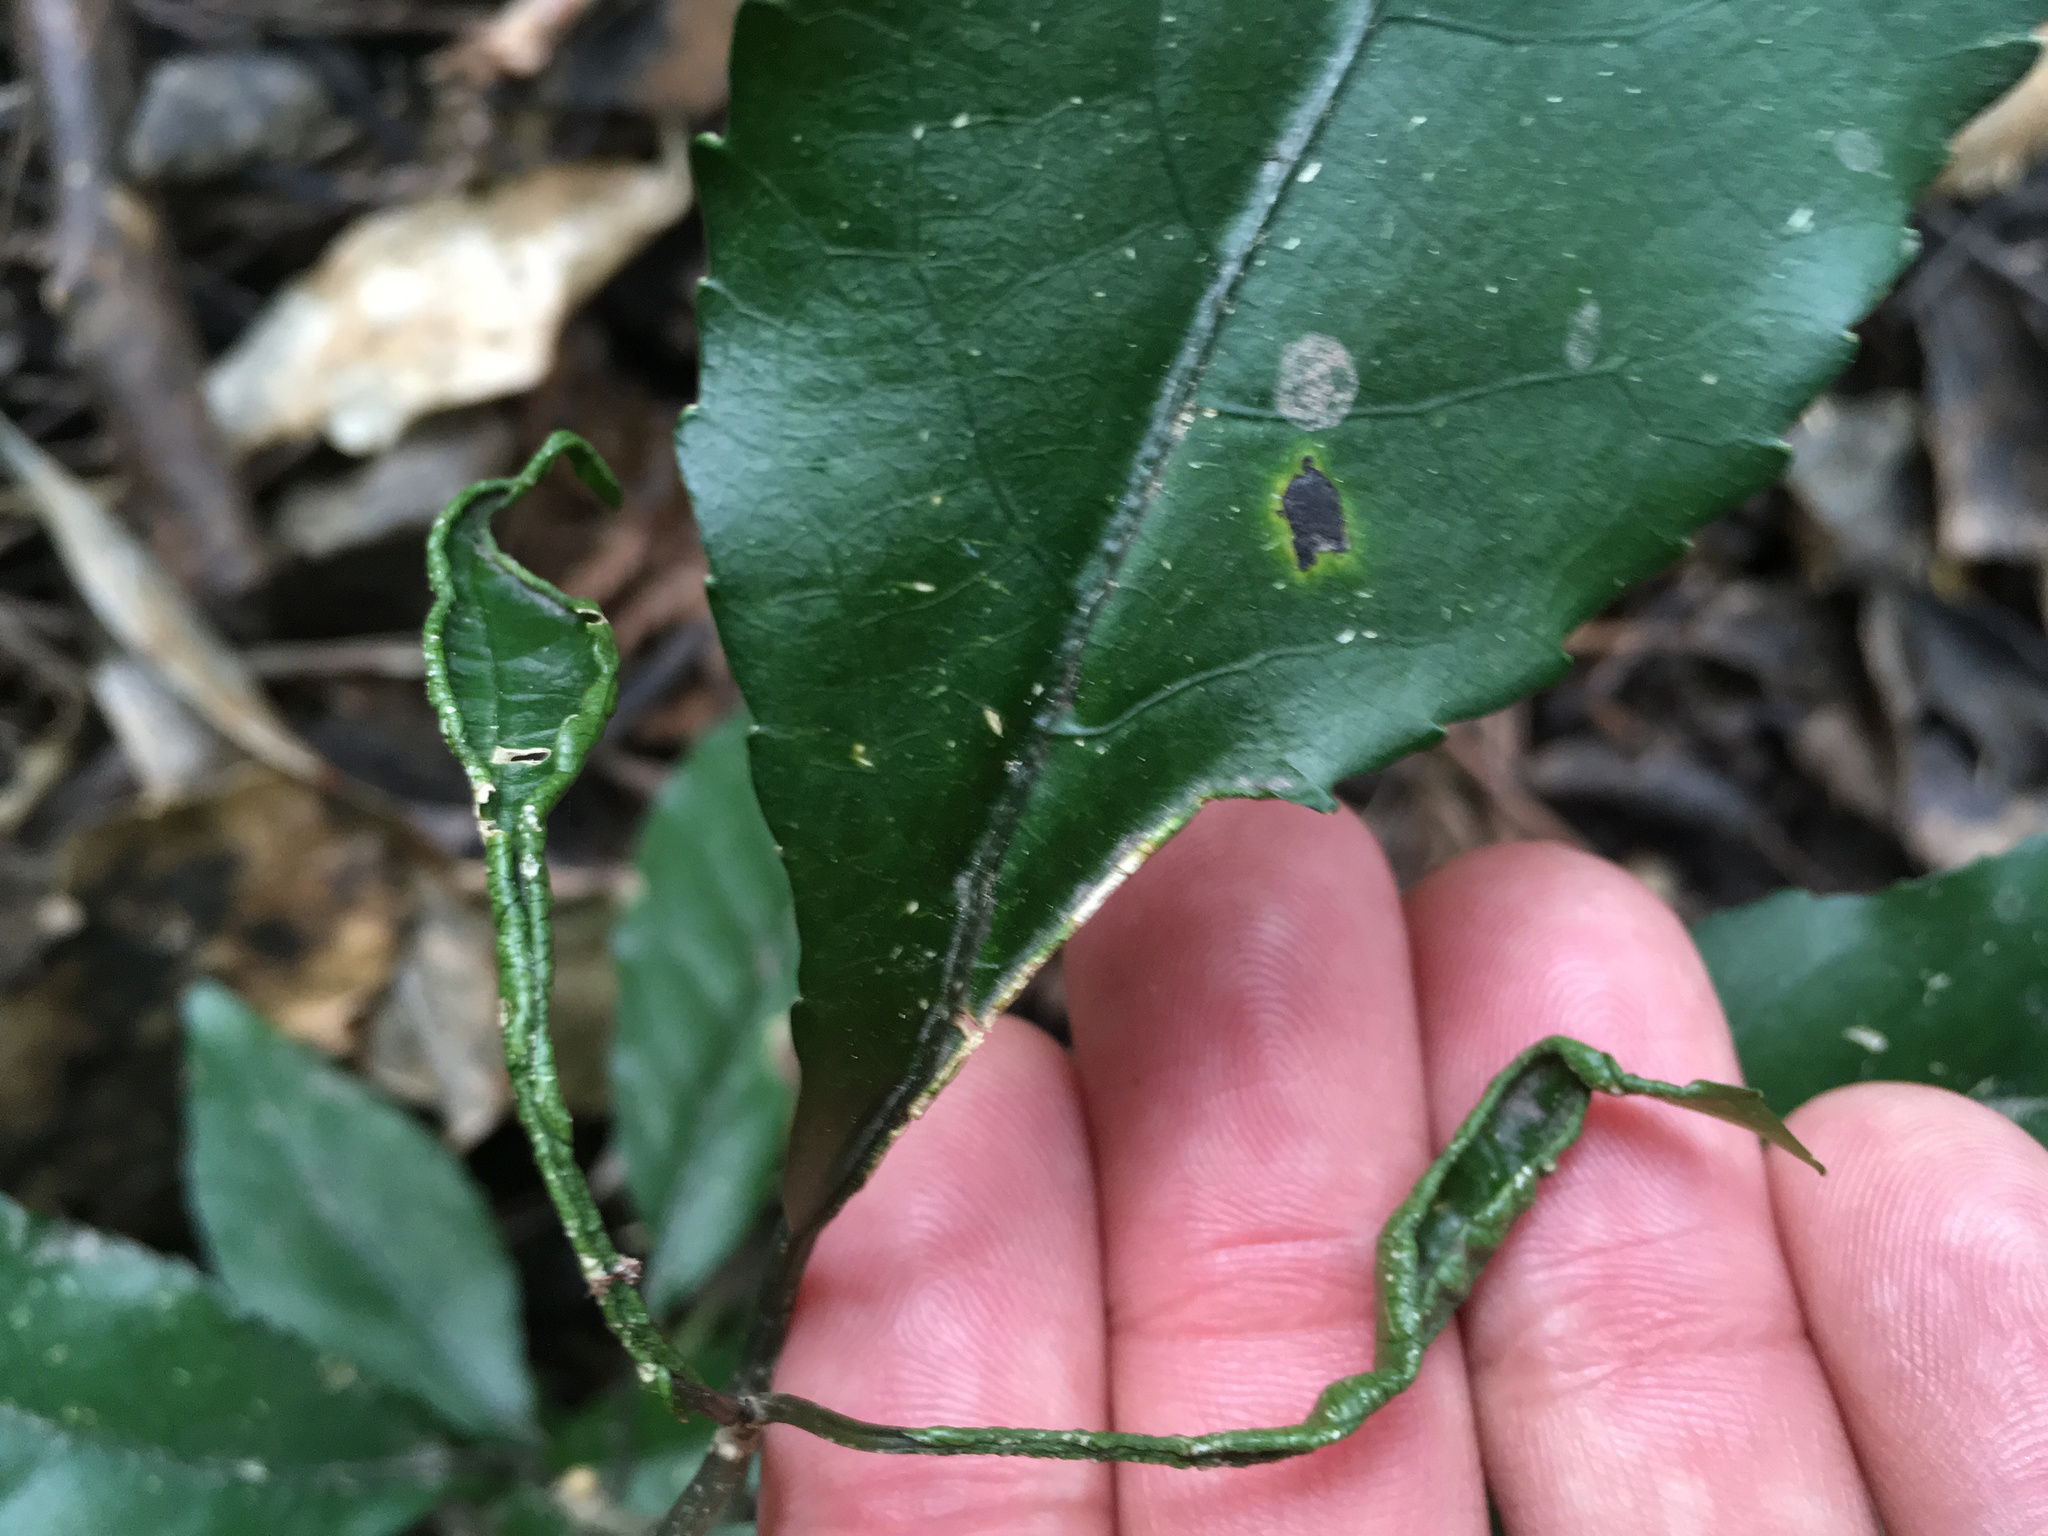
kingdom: Animalia
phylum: Arthropoda
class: Arachnida
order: Trombidiformes
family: Eriophyidae
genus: Aceria
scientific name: Aceria
